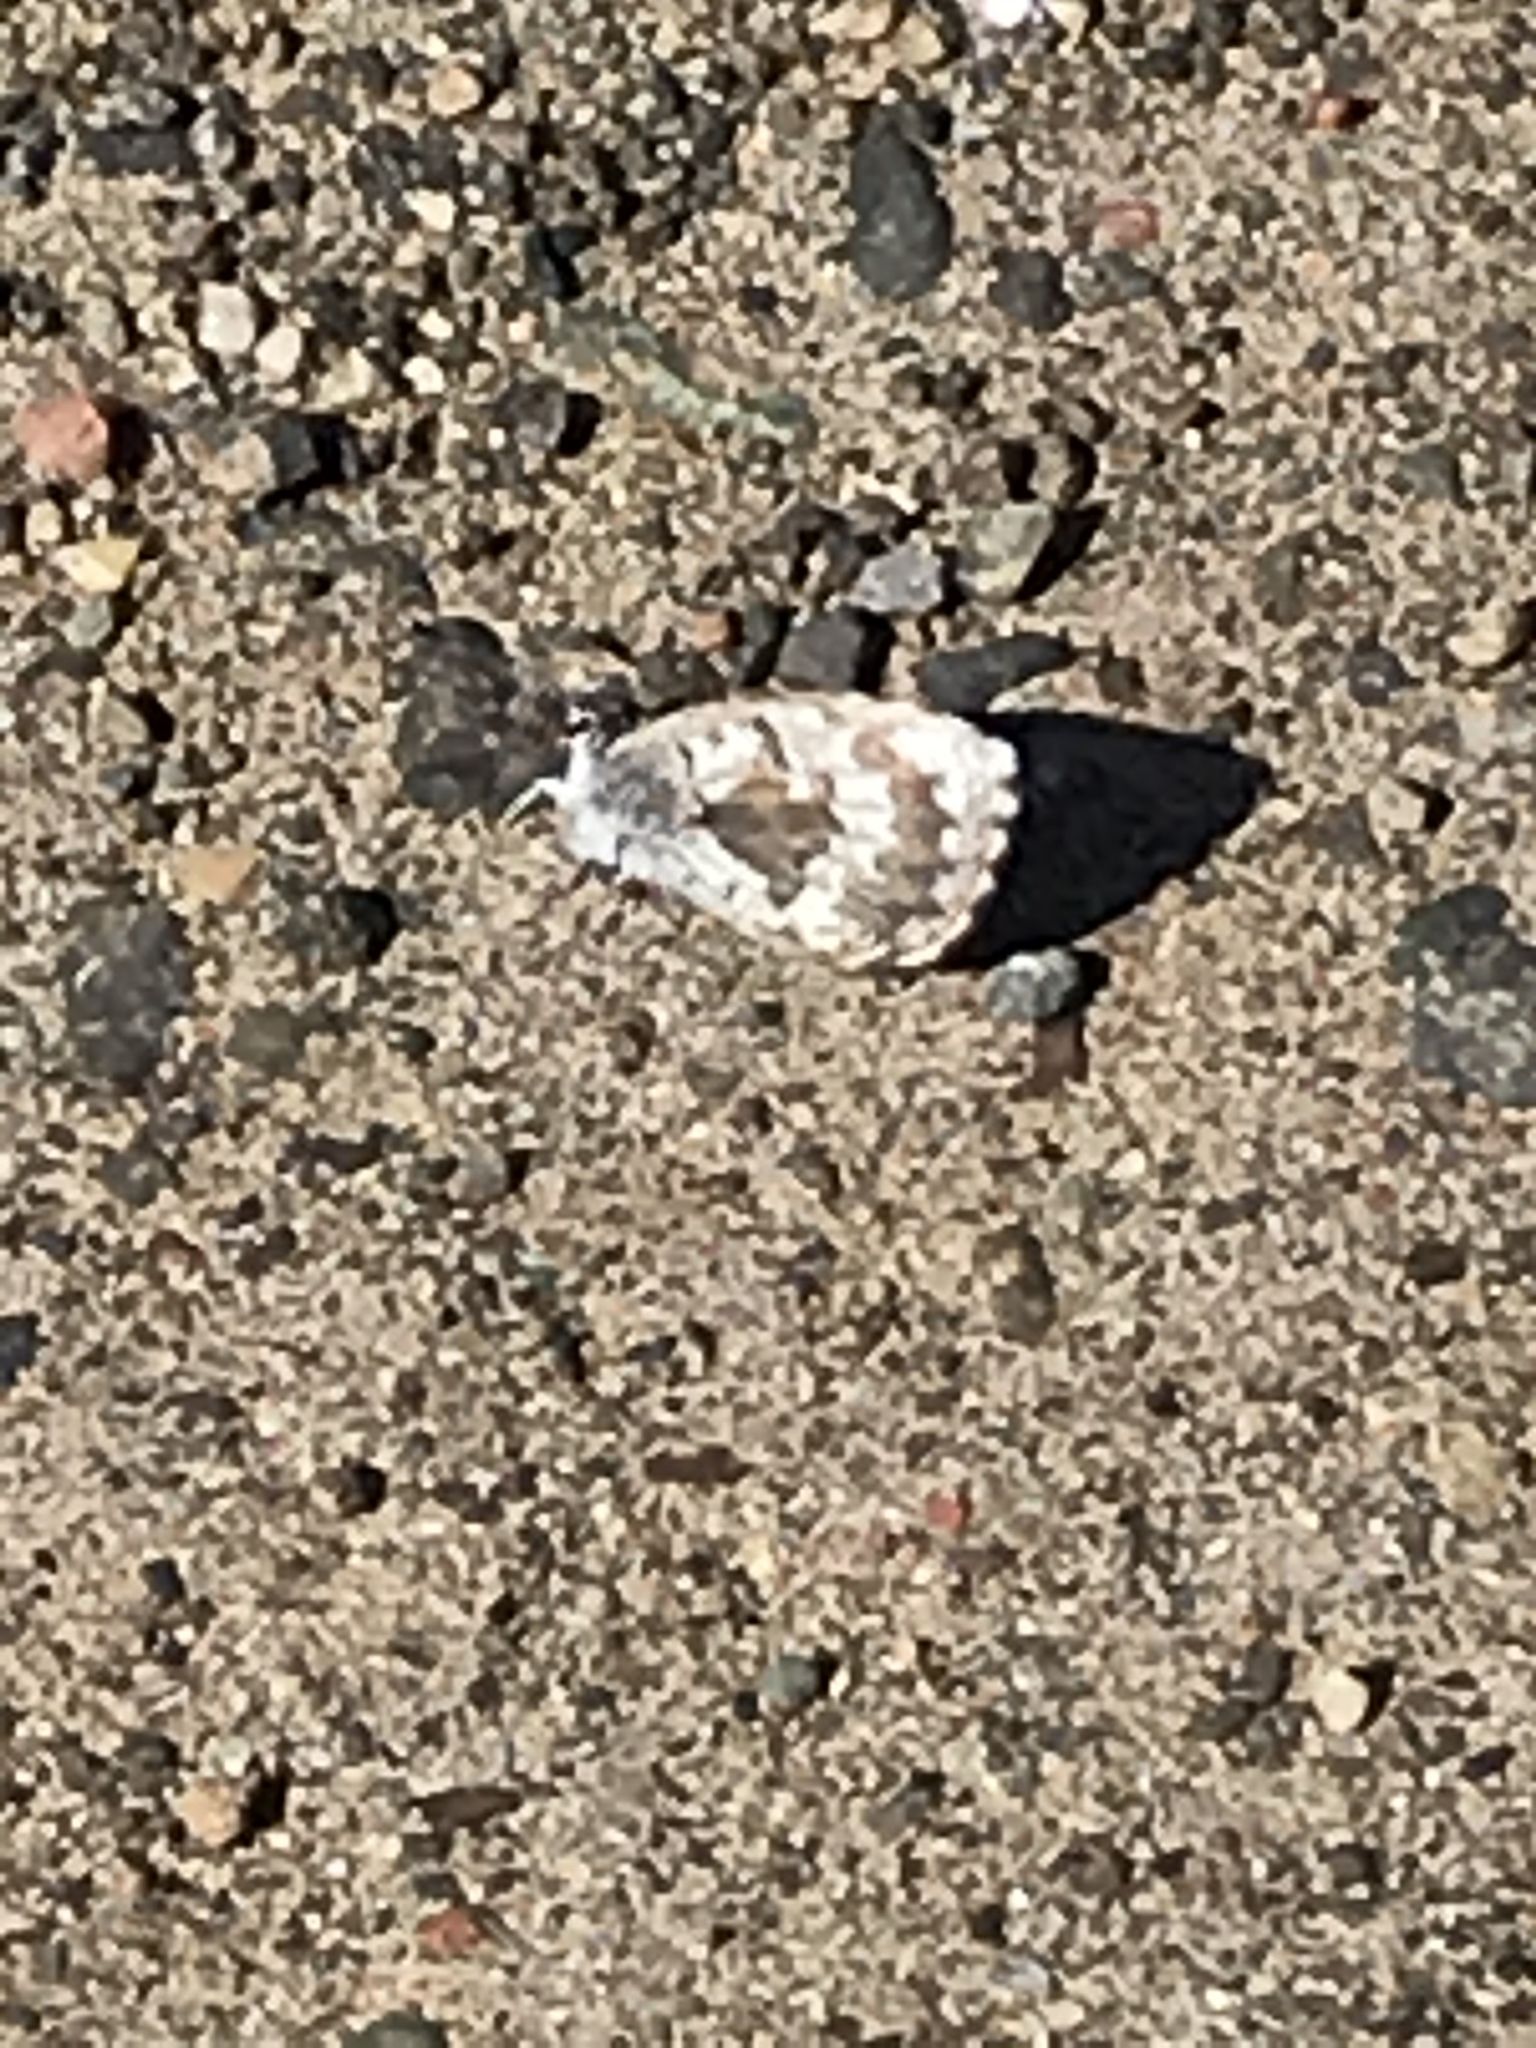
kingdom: Animalia
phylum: Arthropoda
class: Insecta
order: Lepidoptera
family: Lycaenidae
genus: Celastrina
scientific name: Celastrina lucia
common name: Lucia azure
